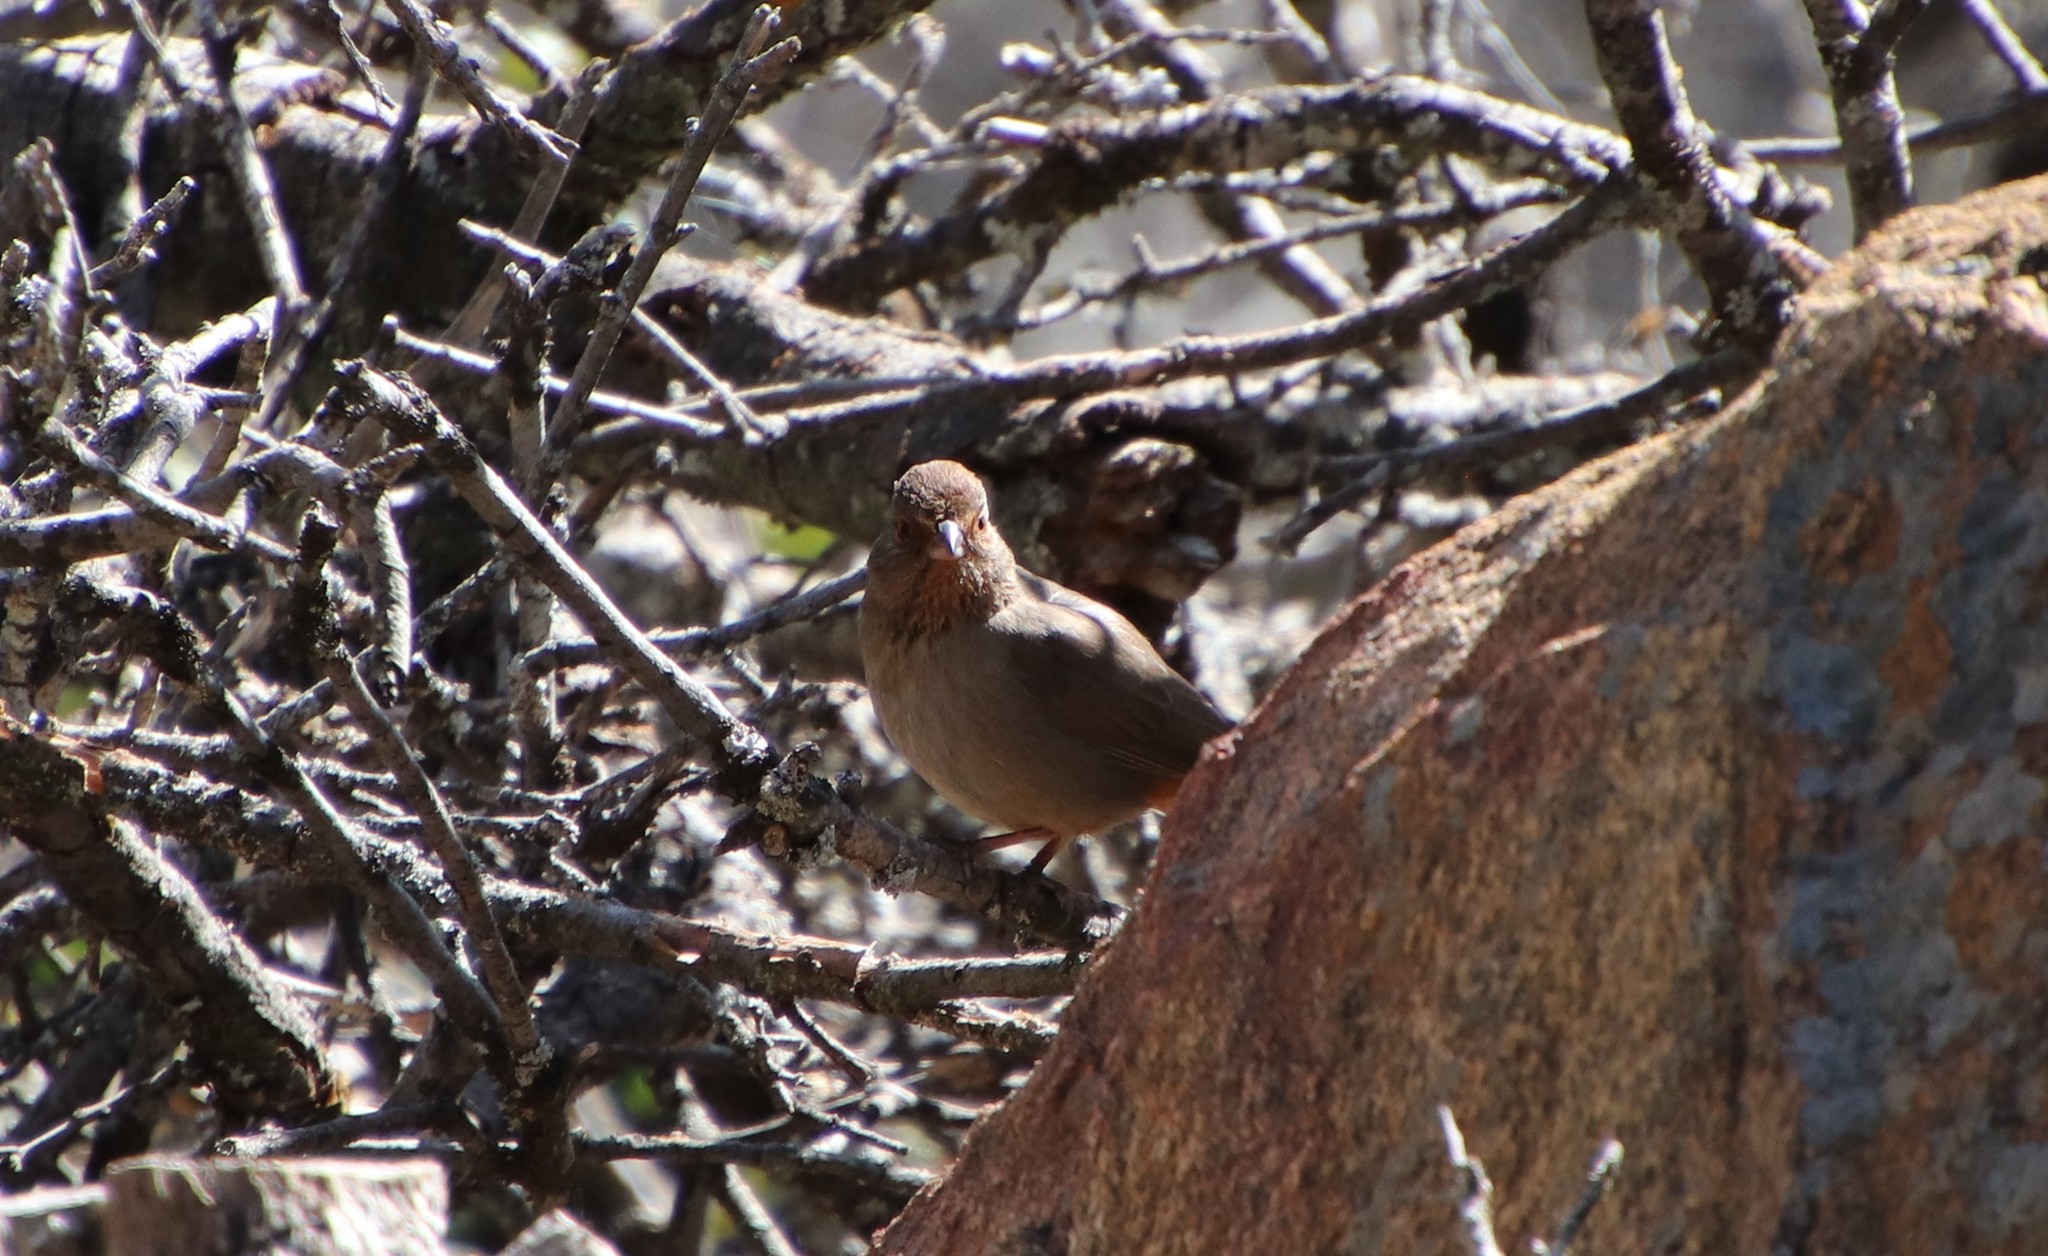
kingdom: Animalia
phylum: Chordata
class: Aves
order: Passeriformes
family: Passerellidae
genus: Melozone
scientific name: Melozone crissalis
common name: California towhee
